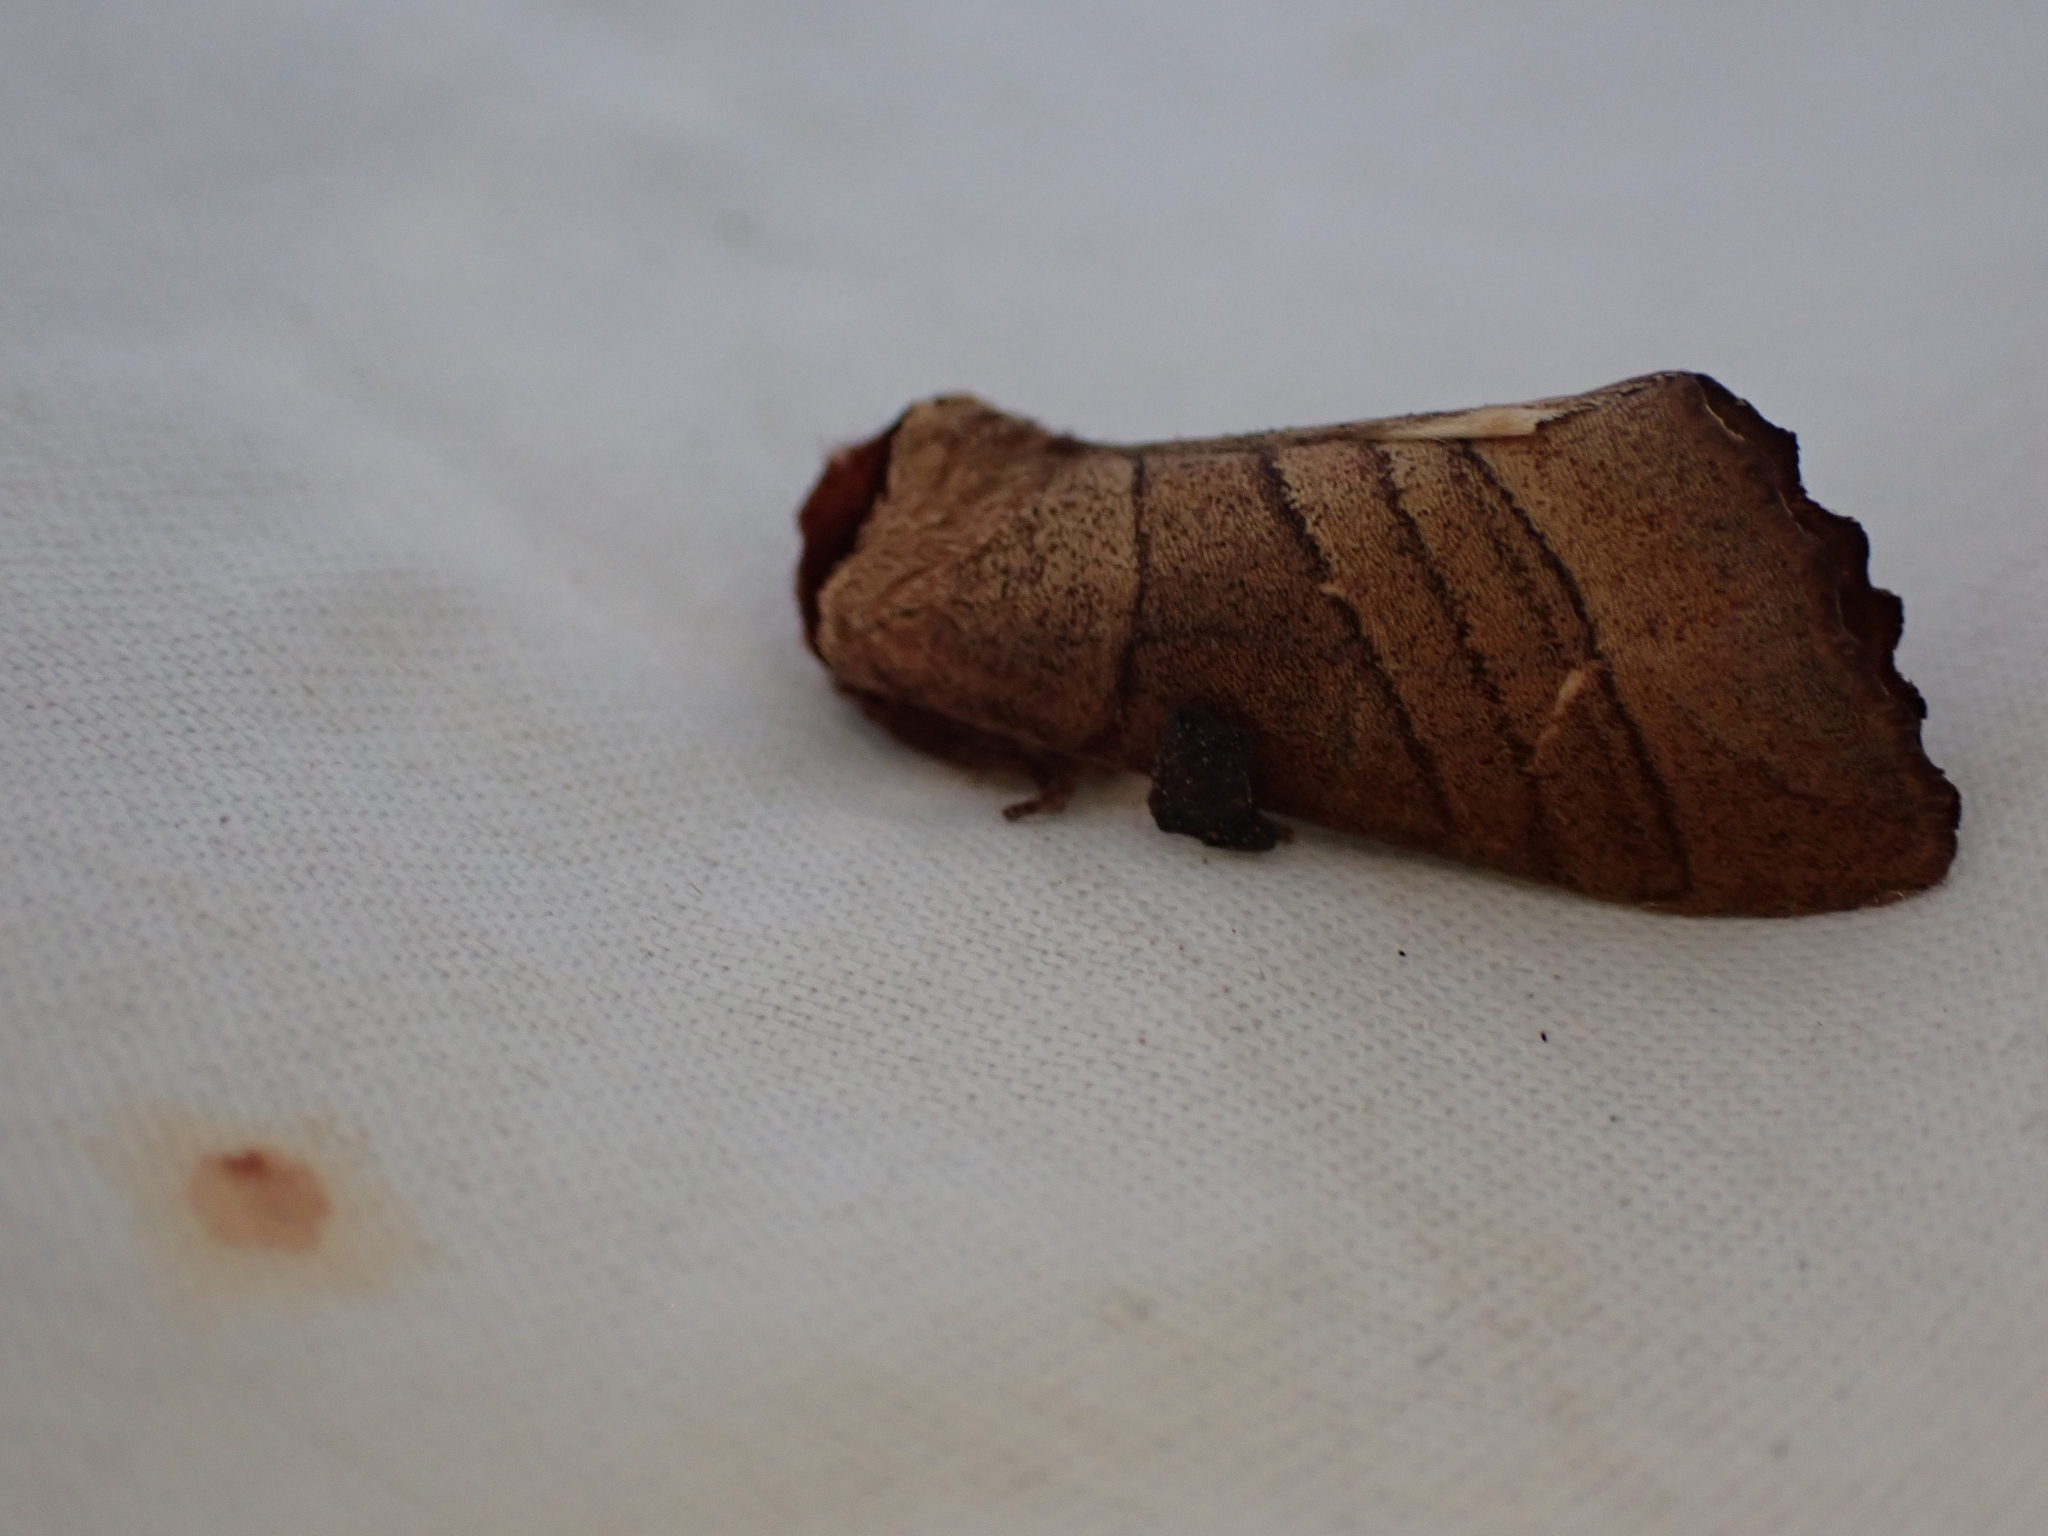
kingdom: Animalia
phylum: Arthropoda
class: Insecta
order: Lepidoptera
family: Notodontidae
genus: Datana
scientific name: Datana
